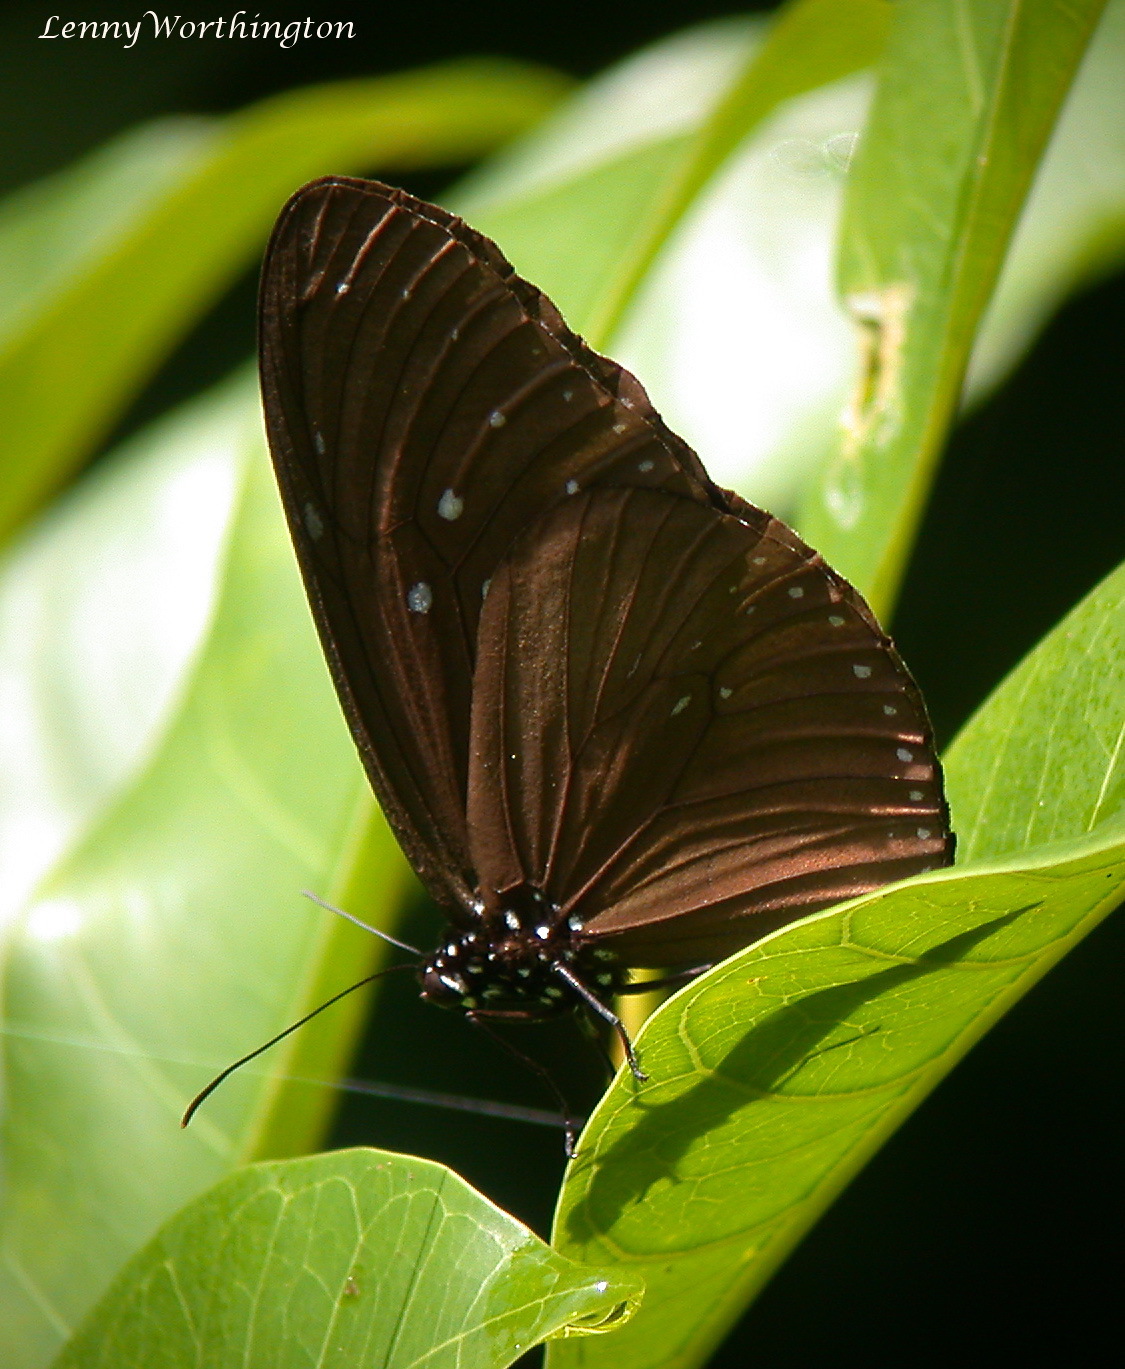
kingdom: Animalia
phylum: Arthropoda
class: Insecta
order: Lepidoptera
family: Nymphalidae
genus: Euploea
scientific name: Euploea mulciber
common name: Striped blue crow butterfly
